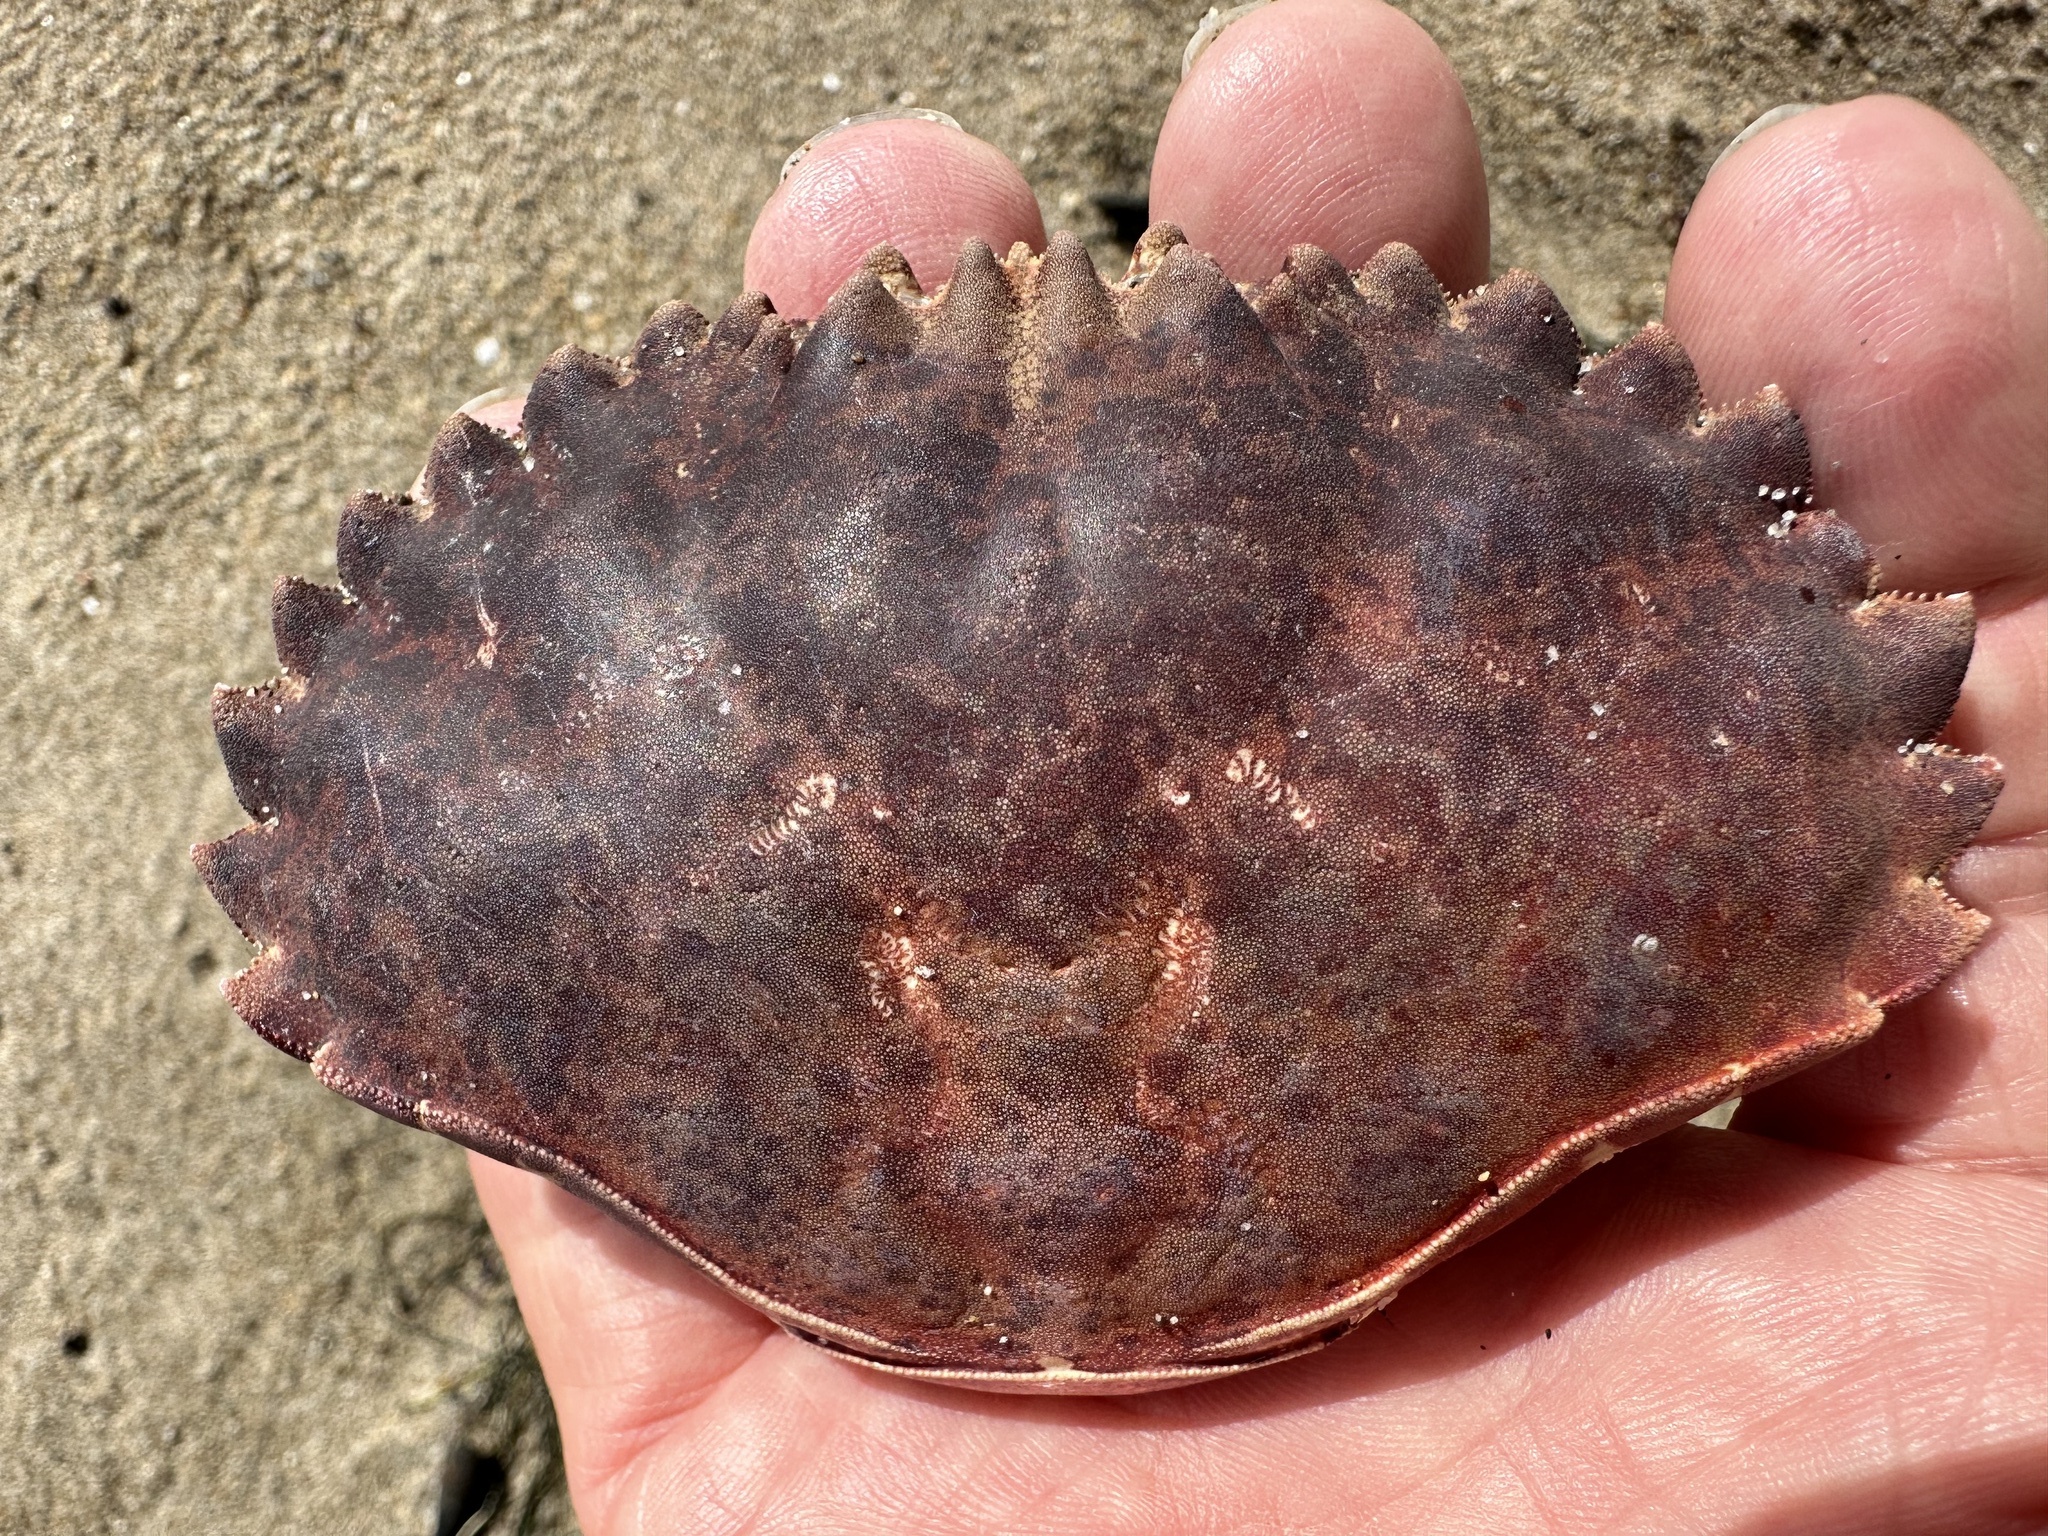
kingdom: Animalia
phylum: Arthropoda
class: Malacostraca
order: Decapoda
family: Cancridae
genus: Romaleon
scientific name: Romaleon antennarium
